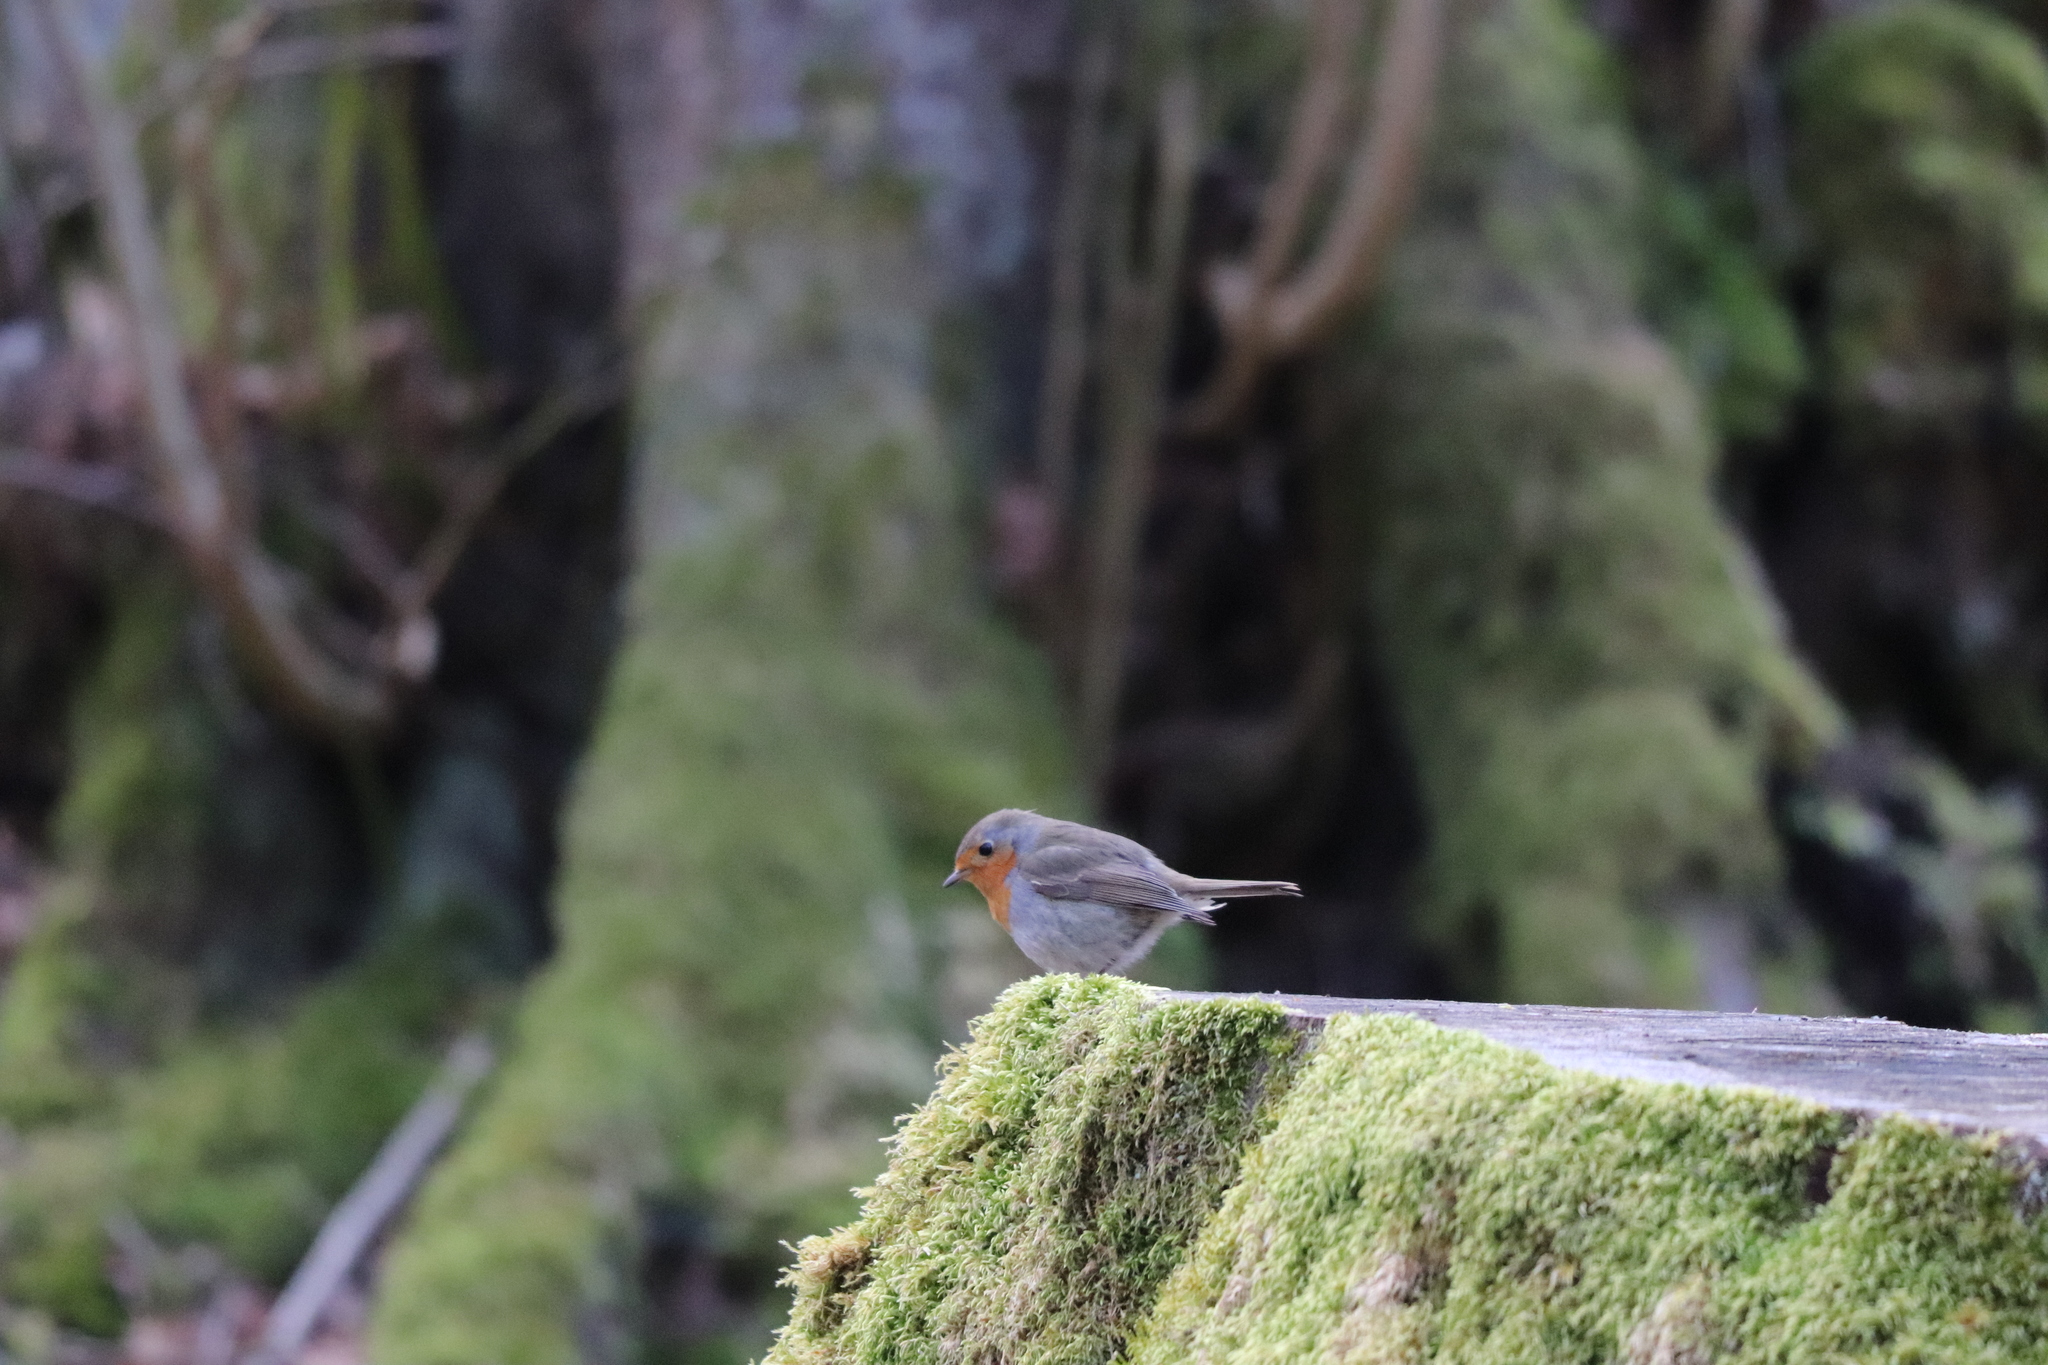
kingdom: Animalia
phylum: Chordata
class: Aves
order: Passeriformes
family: Muscicapidae
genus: Erithacus
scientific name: Erithacus rubecula
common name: European robin
